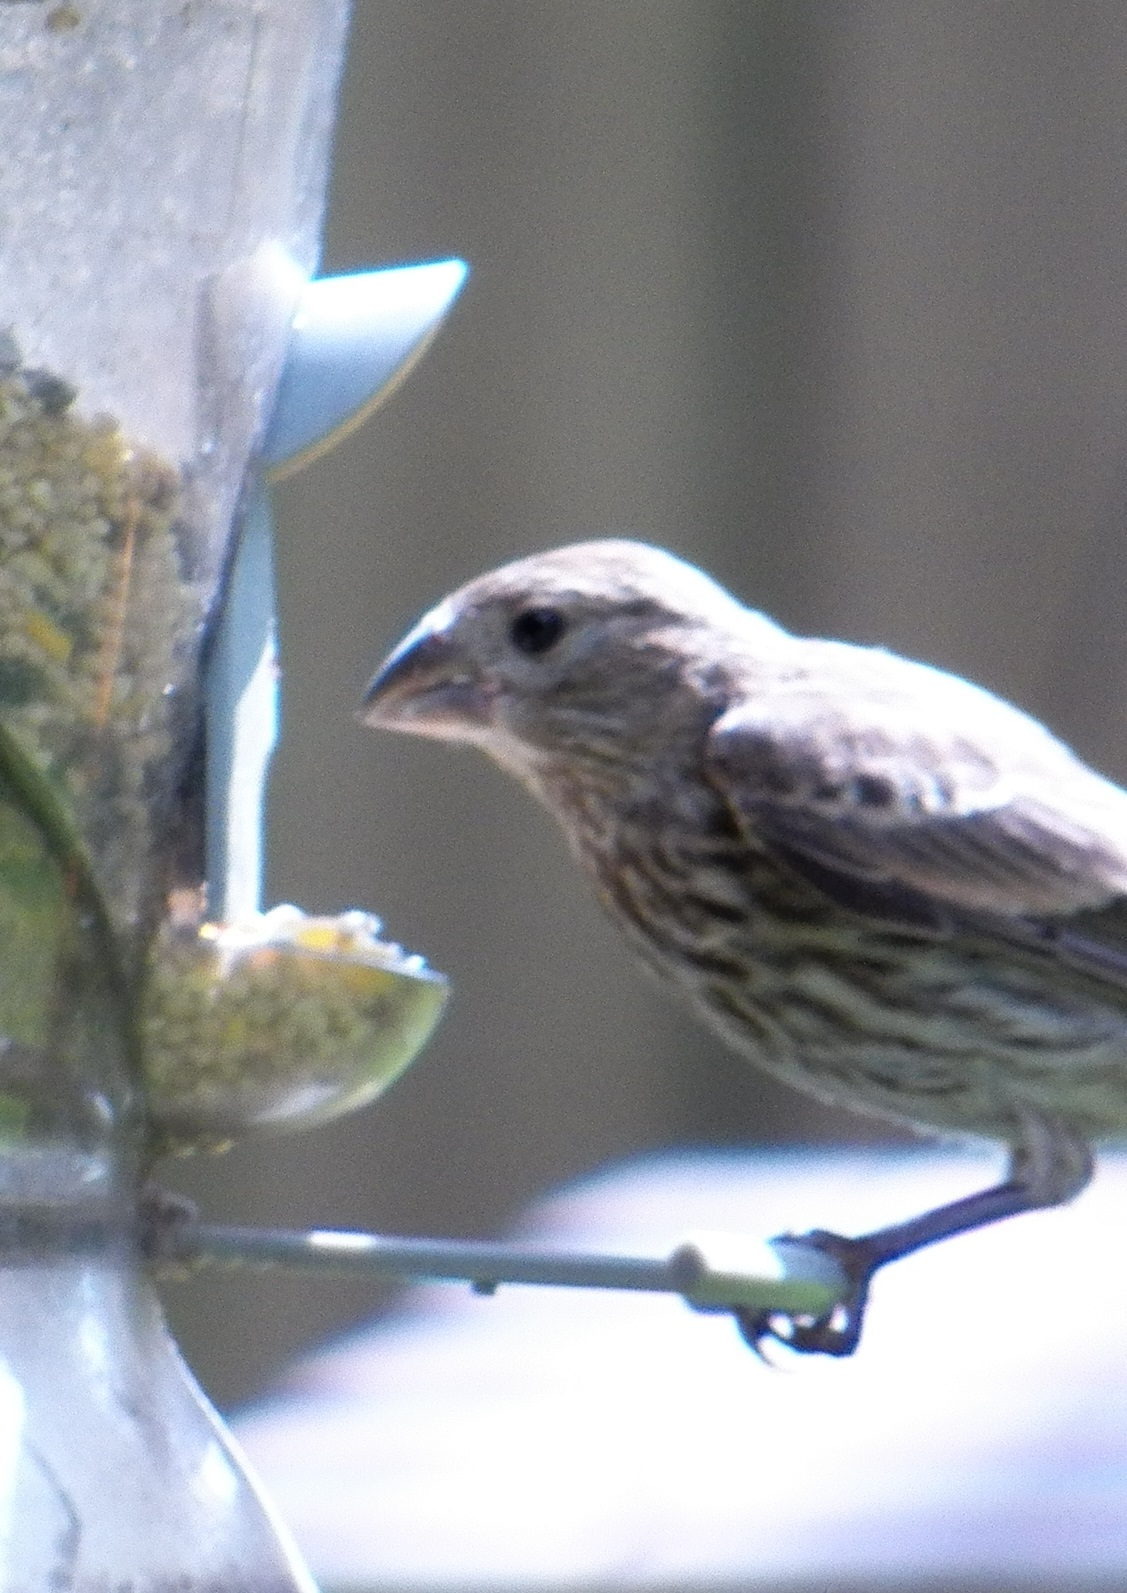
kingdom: Animalia
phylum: Chordata
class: Aves
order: Passeriformes
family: Fringillidae
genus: Haemorhous
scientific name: Haemorhous mexicanus
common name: House finch
